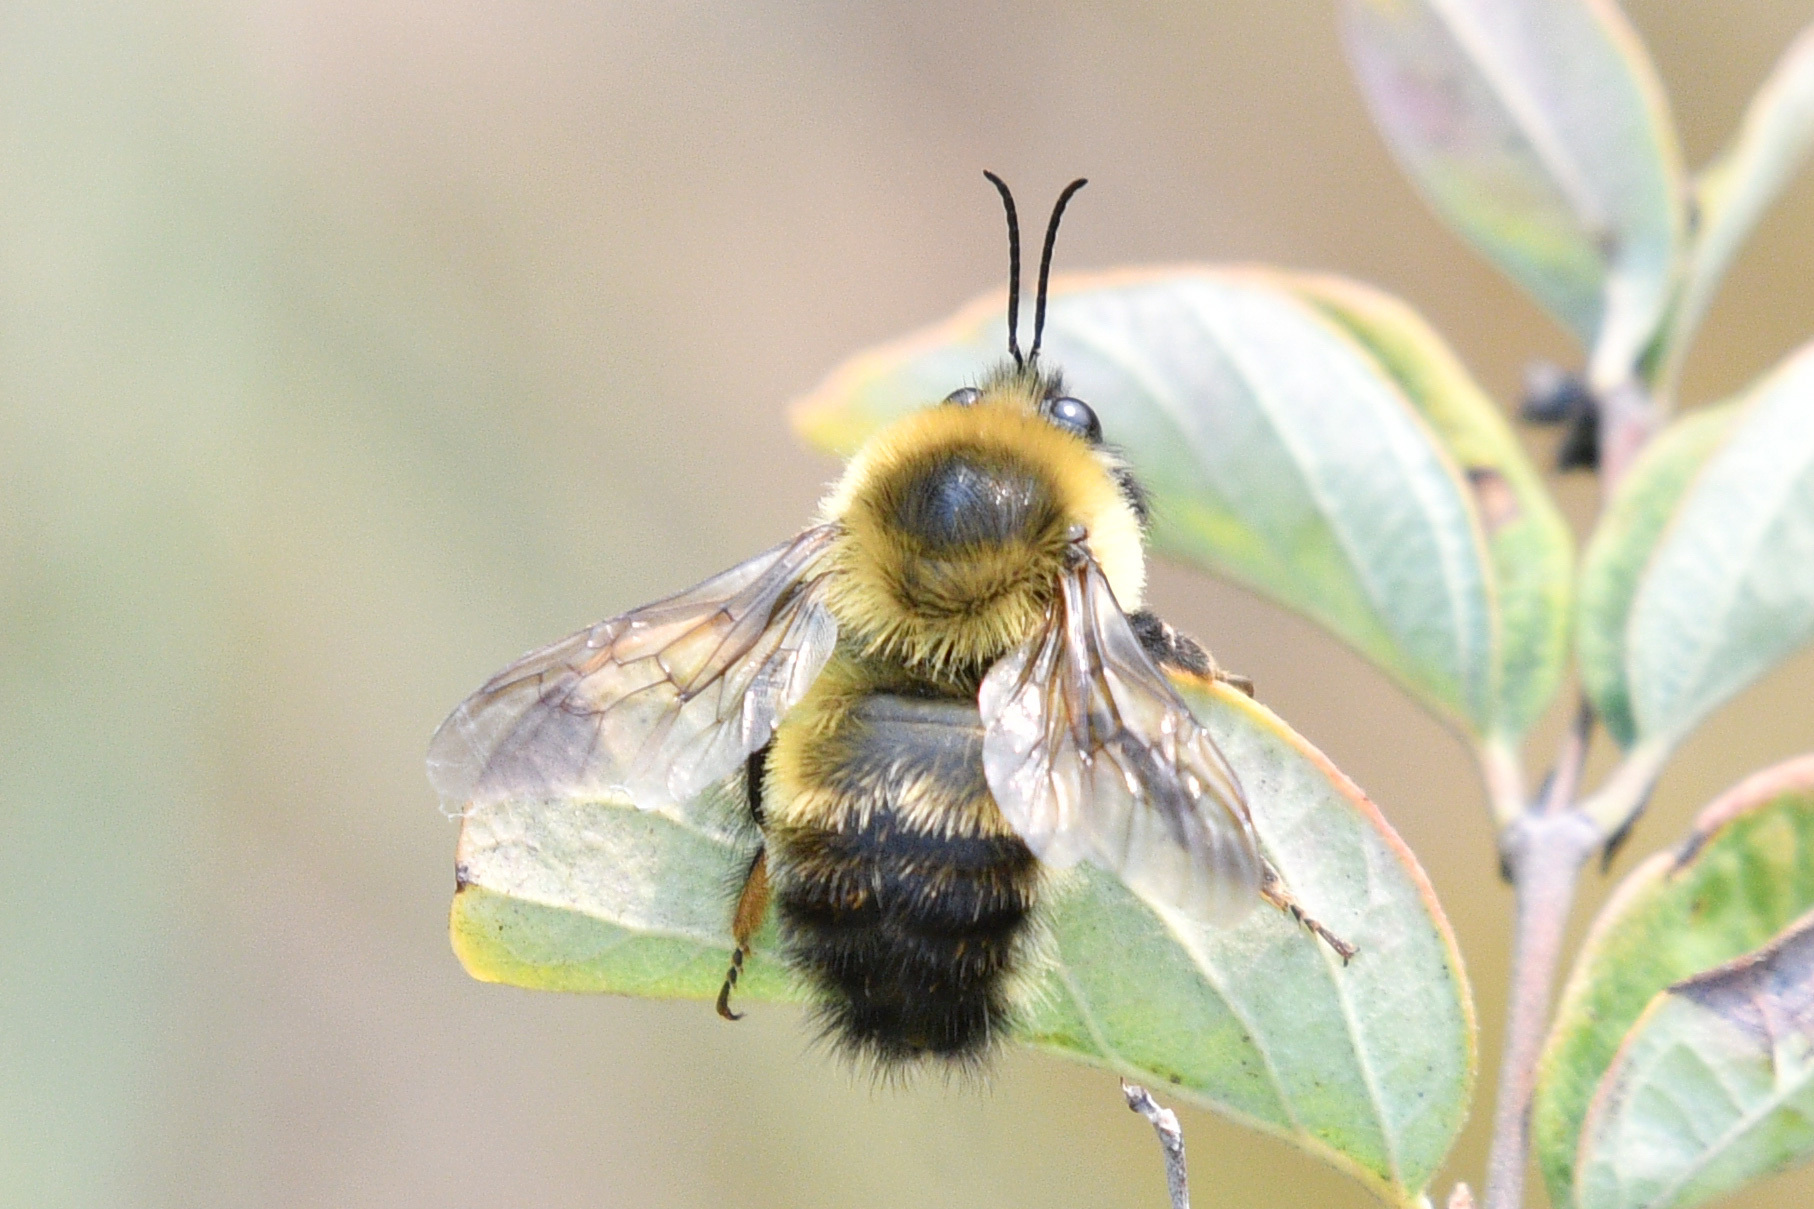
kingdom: Animalia
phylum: Arthropoda
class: Insecta
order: Hymenoptera
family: Apidae
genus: Bombus
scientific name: Bombus rufocinctus
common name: Red-belted bumble bee
